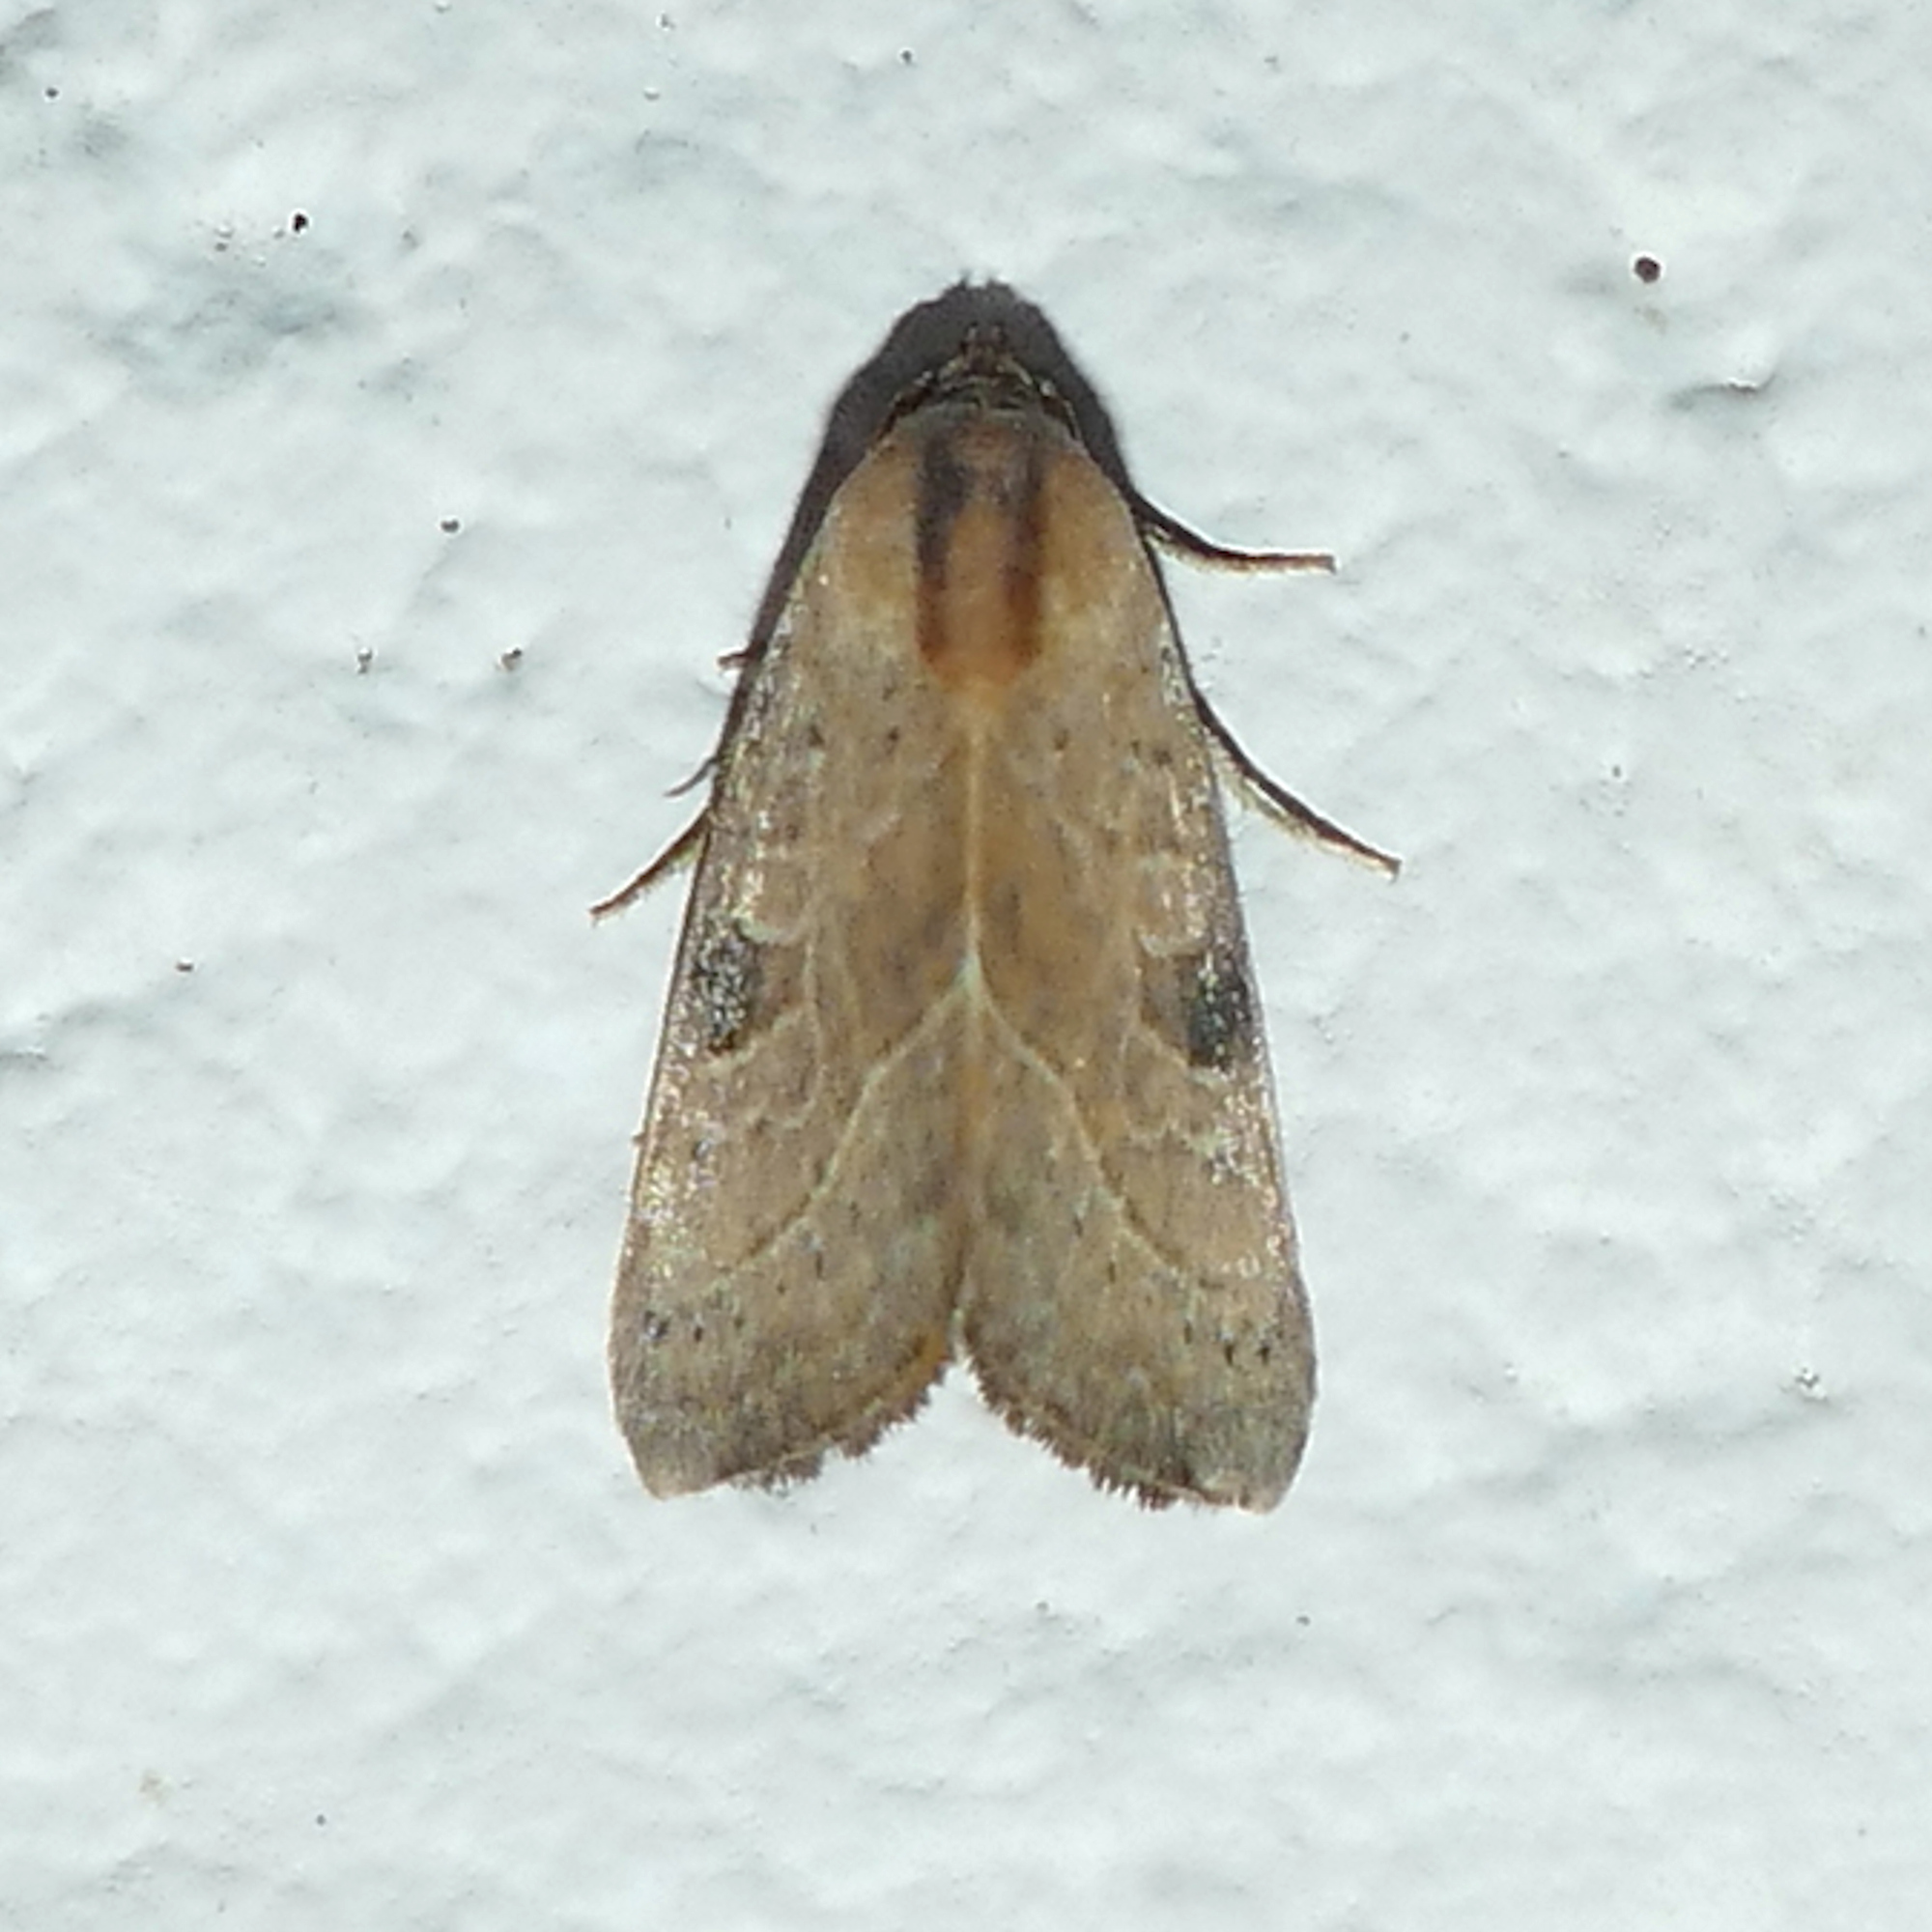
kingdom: Animalia
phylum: Arthropoda
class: Insecta
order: Lepidoptera
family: Noctuidae
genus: Galgula
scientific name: Galgula partita
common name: Wedgeling
